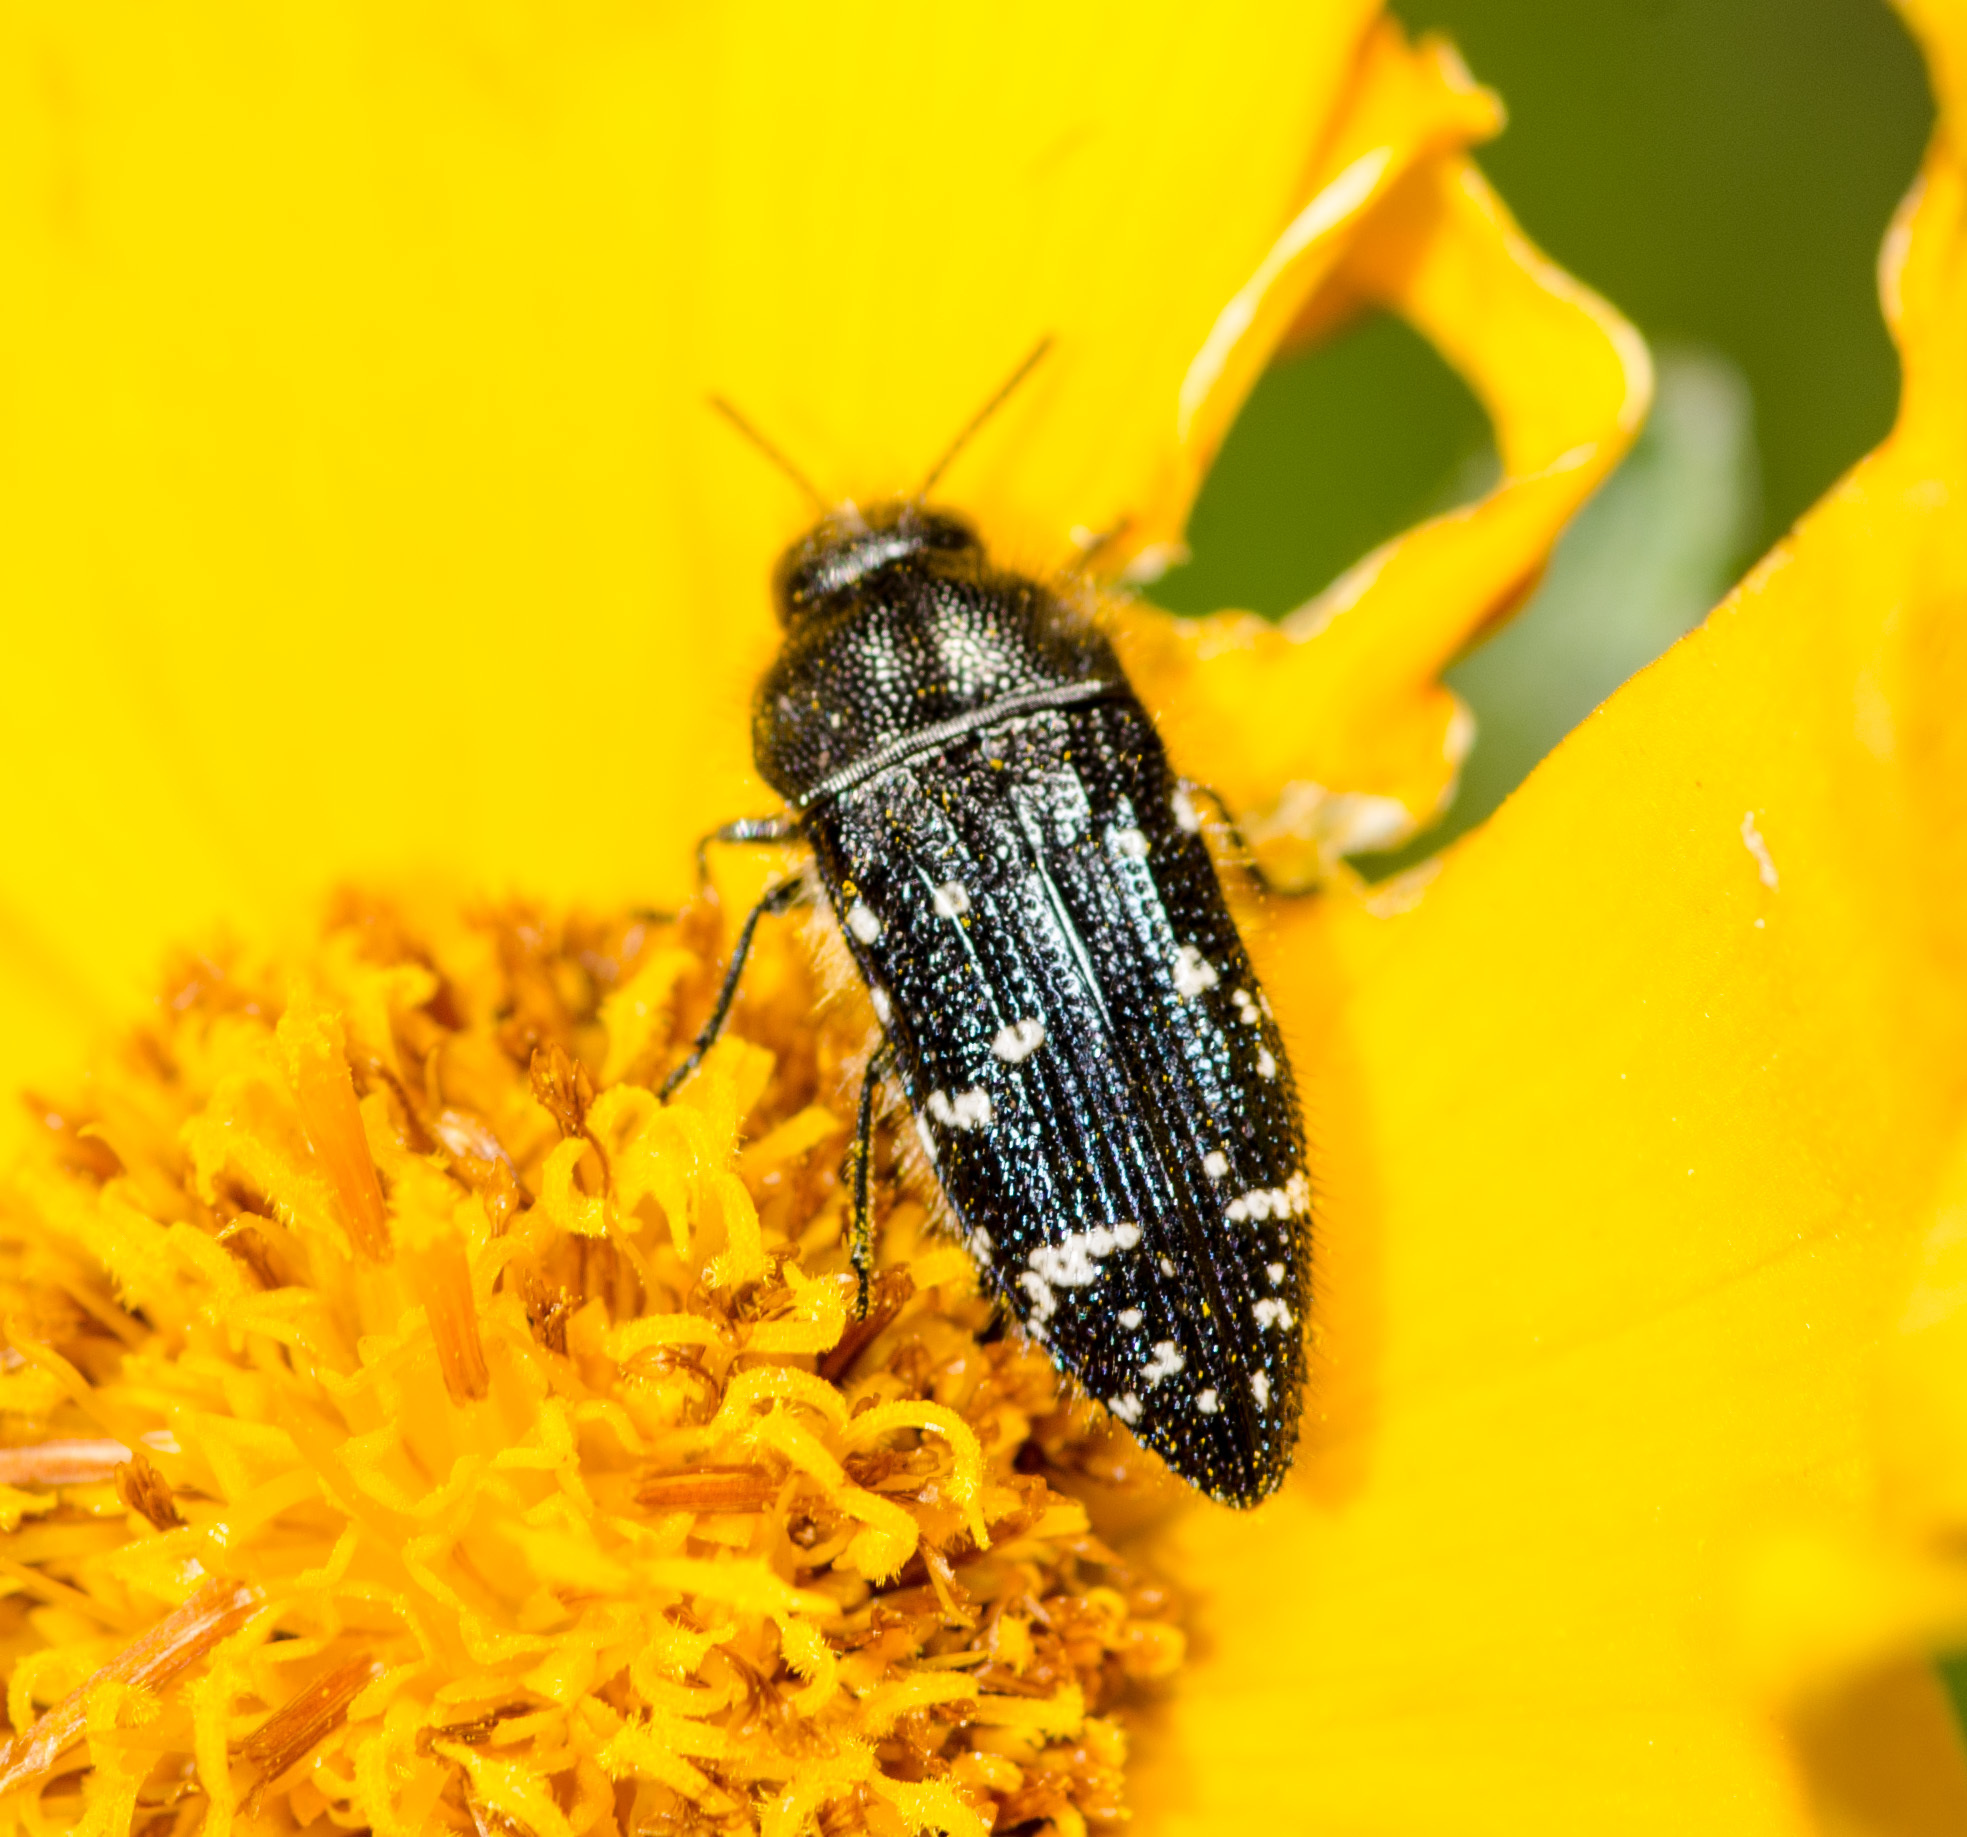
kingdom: Animalia
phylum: Arthropoda
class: Insecta
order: Coleoptera
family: Buprestidae
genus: Acmaeodera
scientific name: Acmaeodera ornatoides
